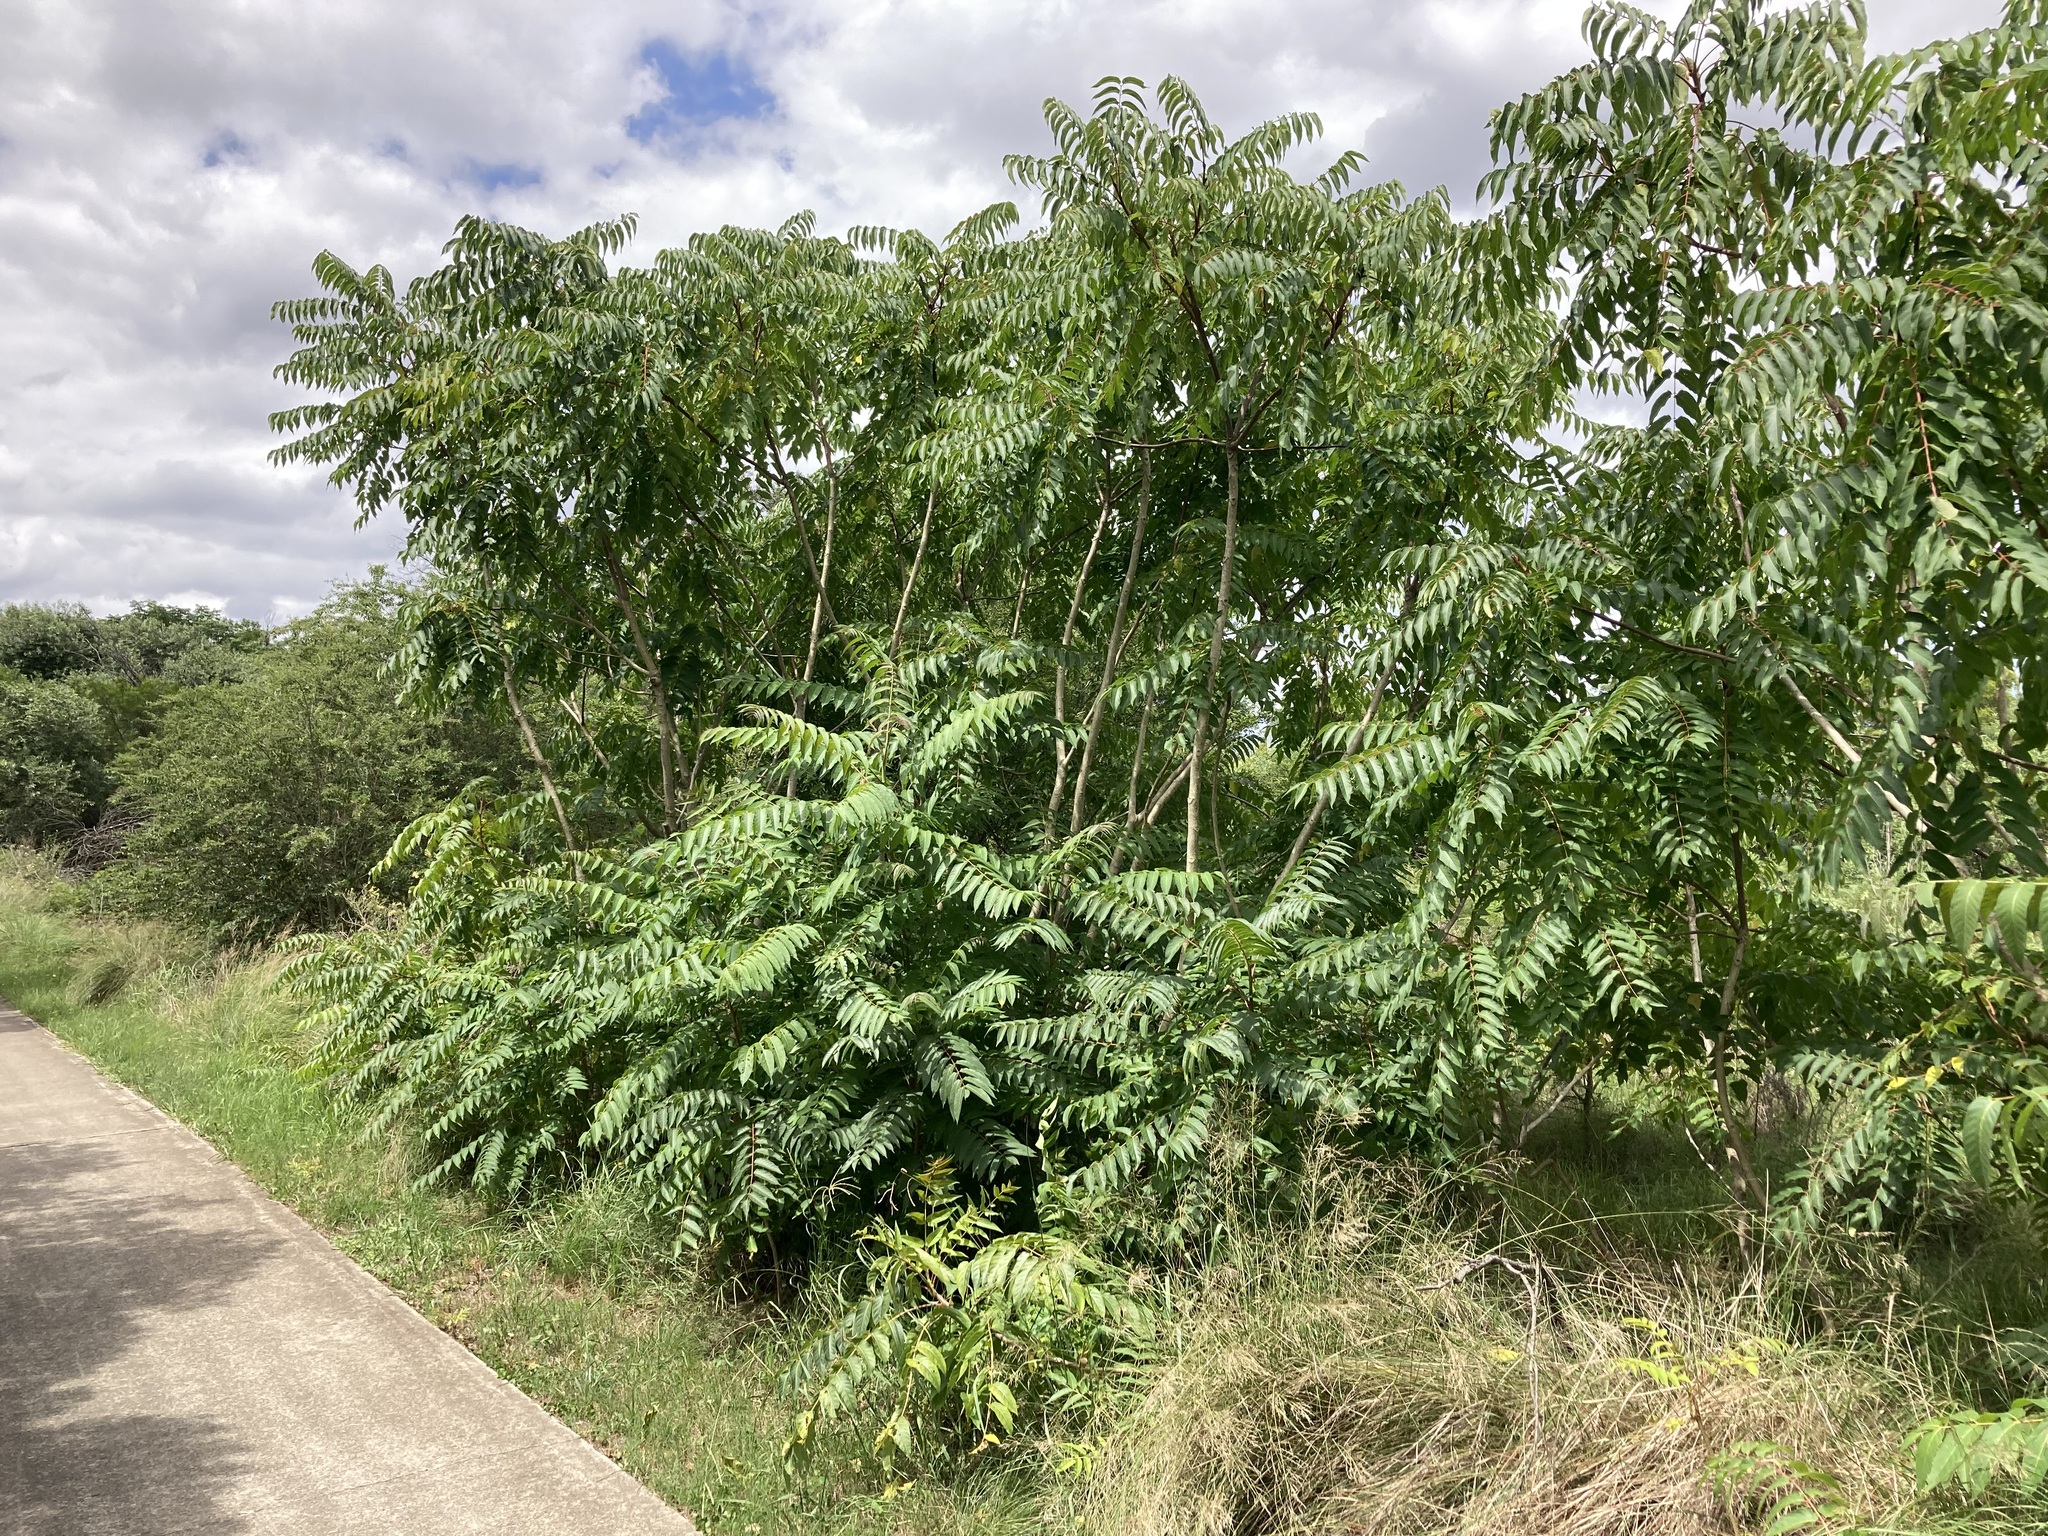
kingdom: Plantae
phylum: Tracheophyta
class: Magnoliopsida
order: Sapindales
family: Simaroubaceae
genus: Ailanthus
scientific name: Ailanthus altissima
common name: Tree-of-heaven
